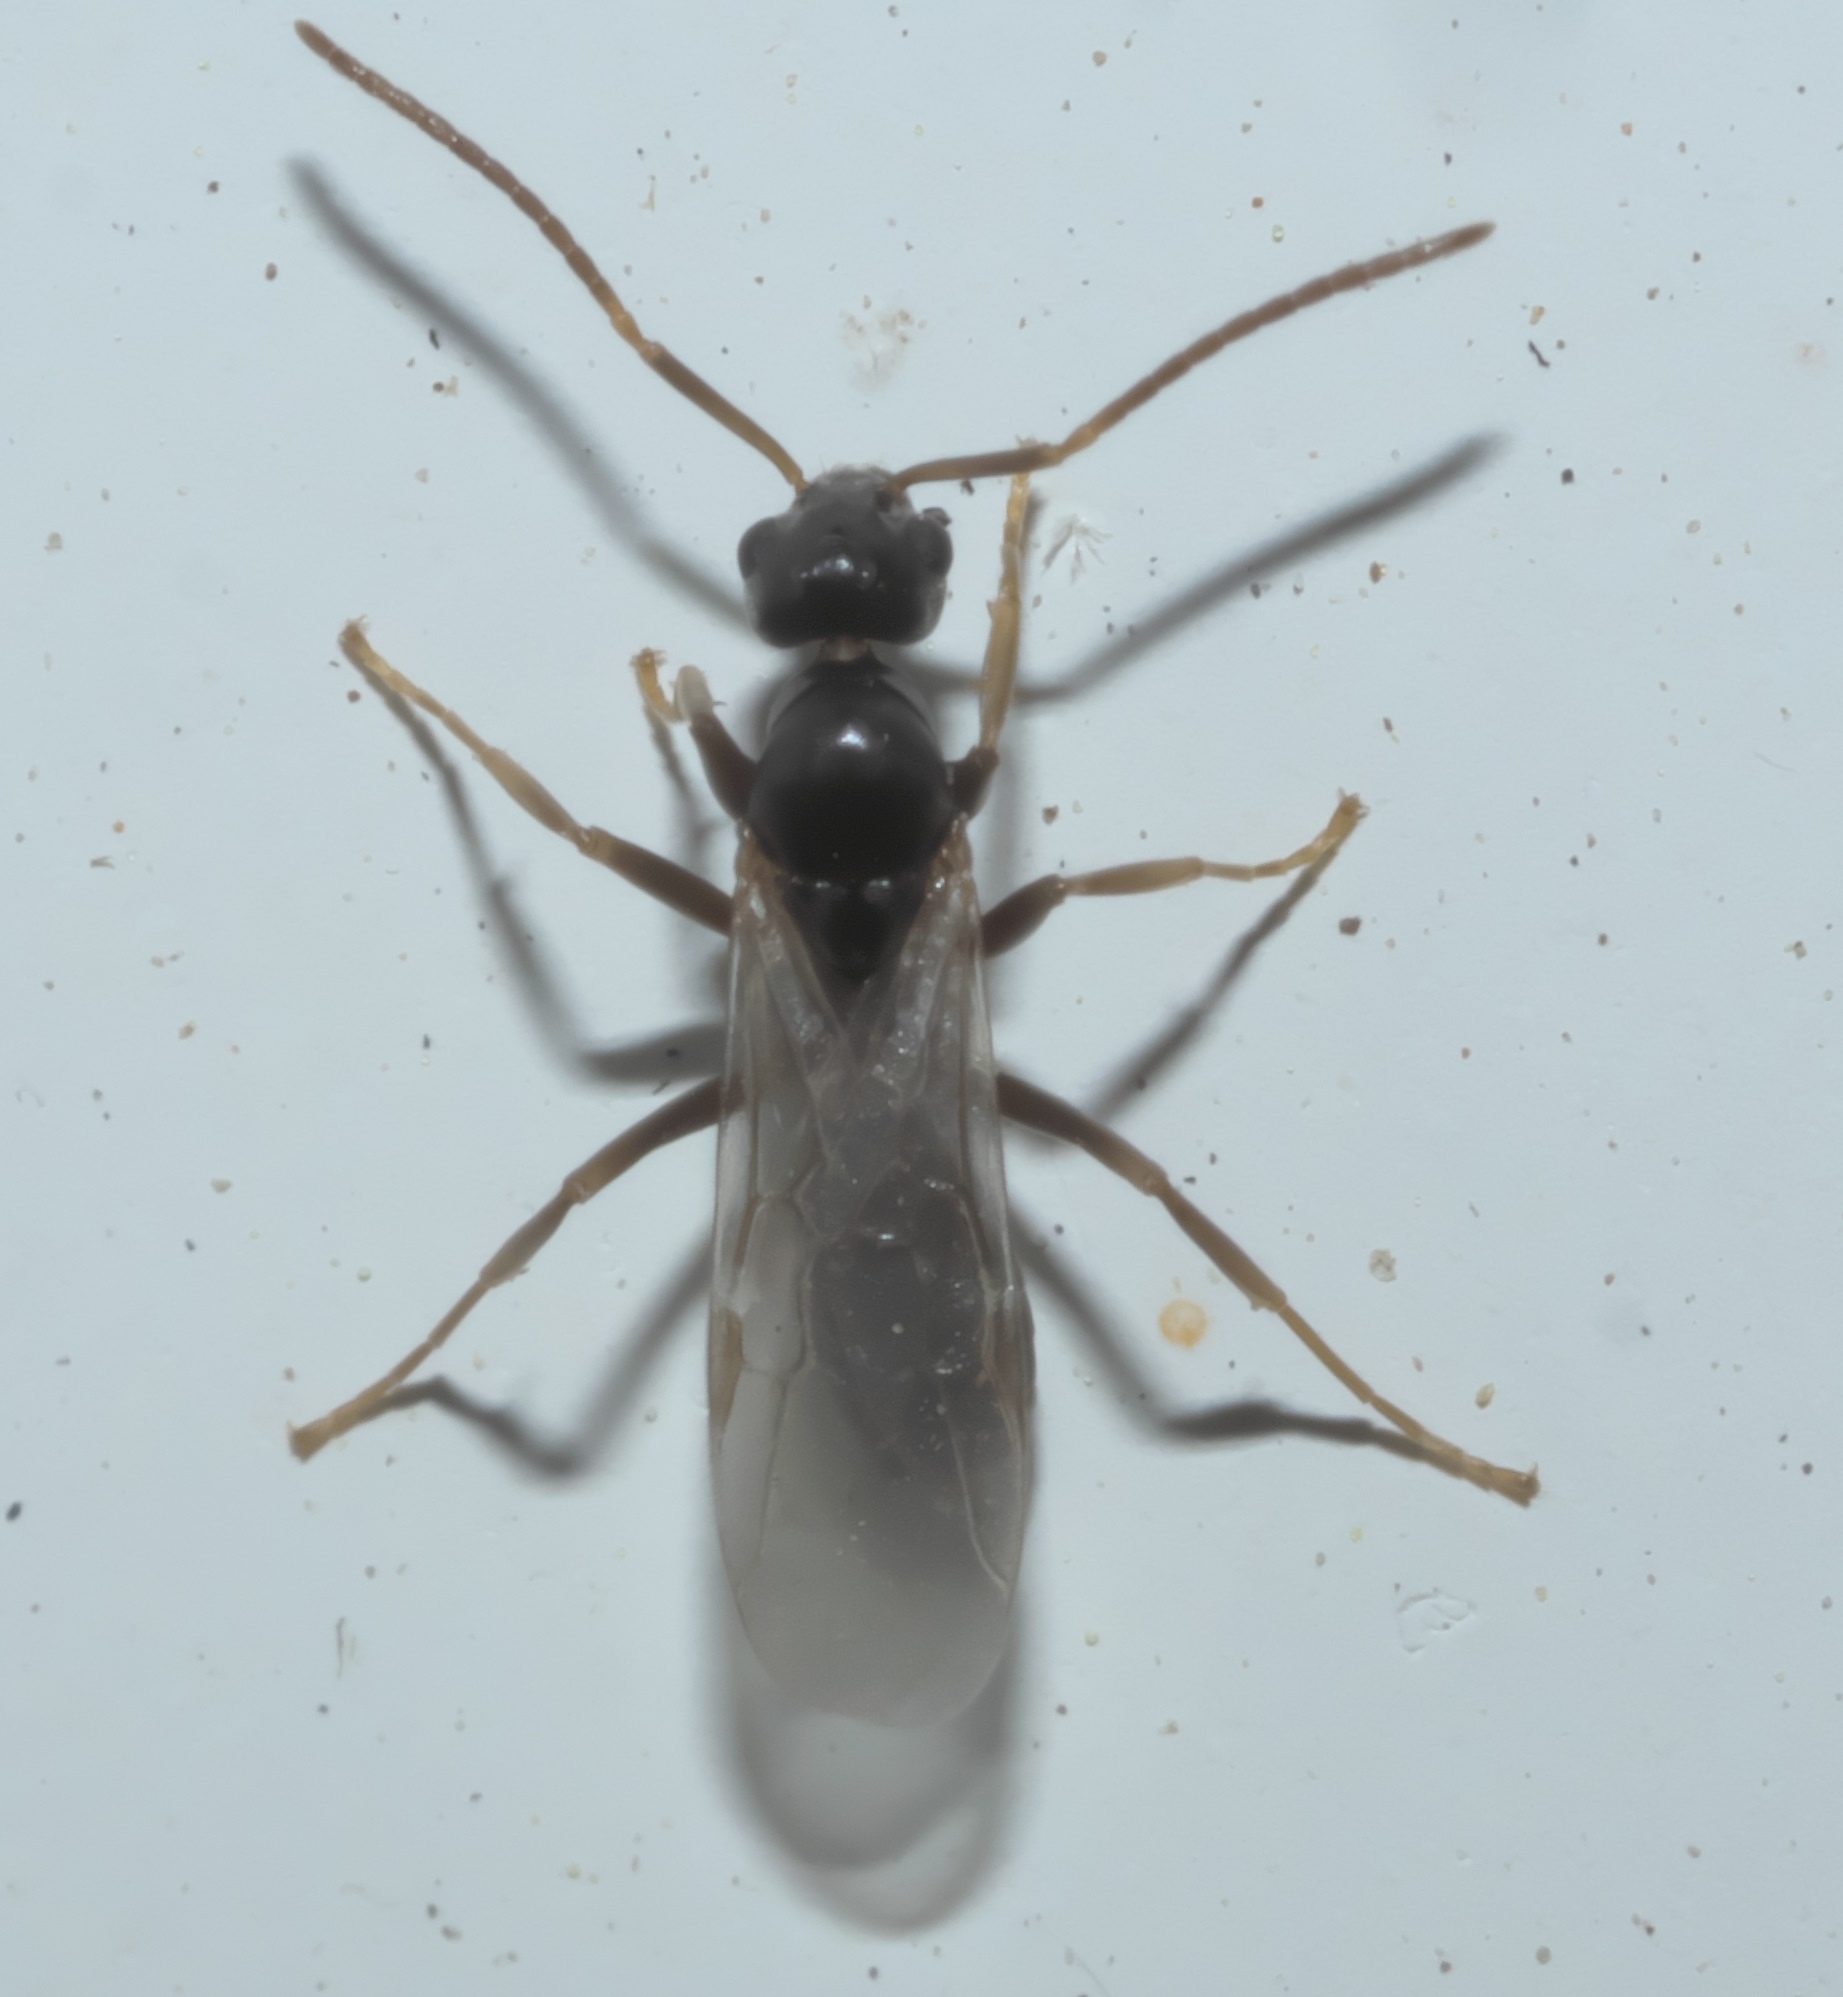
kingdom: Animalia
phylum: Arthropoda
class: Insecta
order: Hymenoptera
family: Formicidae
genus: Tapinoma
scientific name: Tapinoma sessile
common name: Odorous house ant
